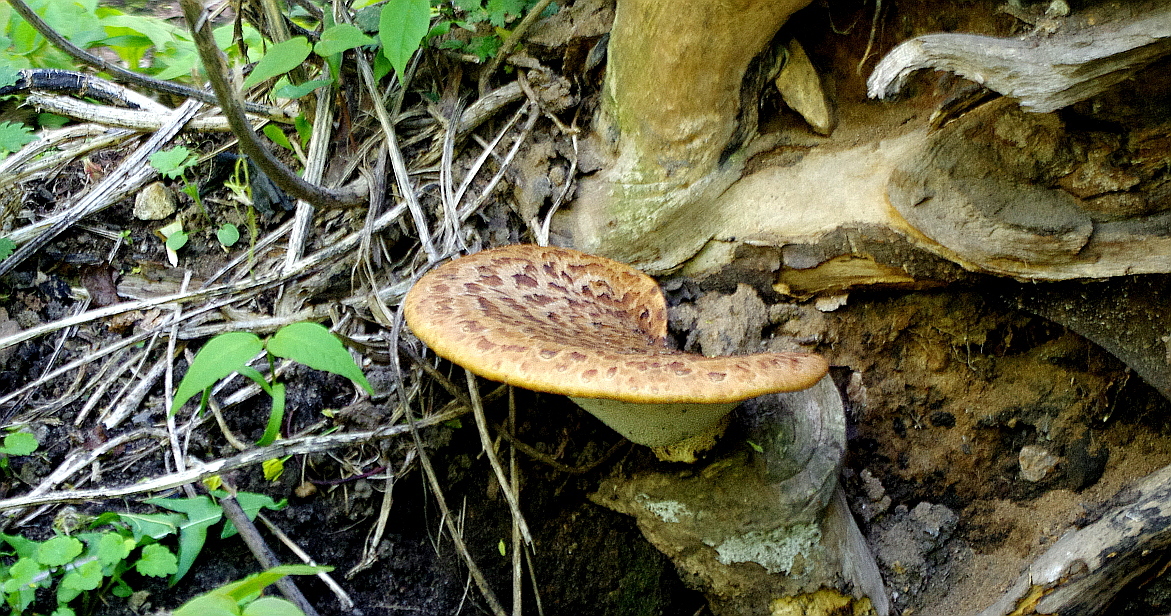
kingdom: Plantae
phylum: Tracheophyta
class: Magnoliopsida
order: Sapindales
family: Sapindaceae
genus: Acer
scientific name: Acer negundo
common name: Ashleaf maple
